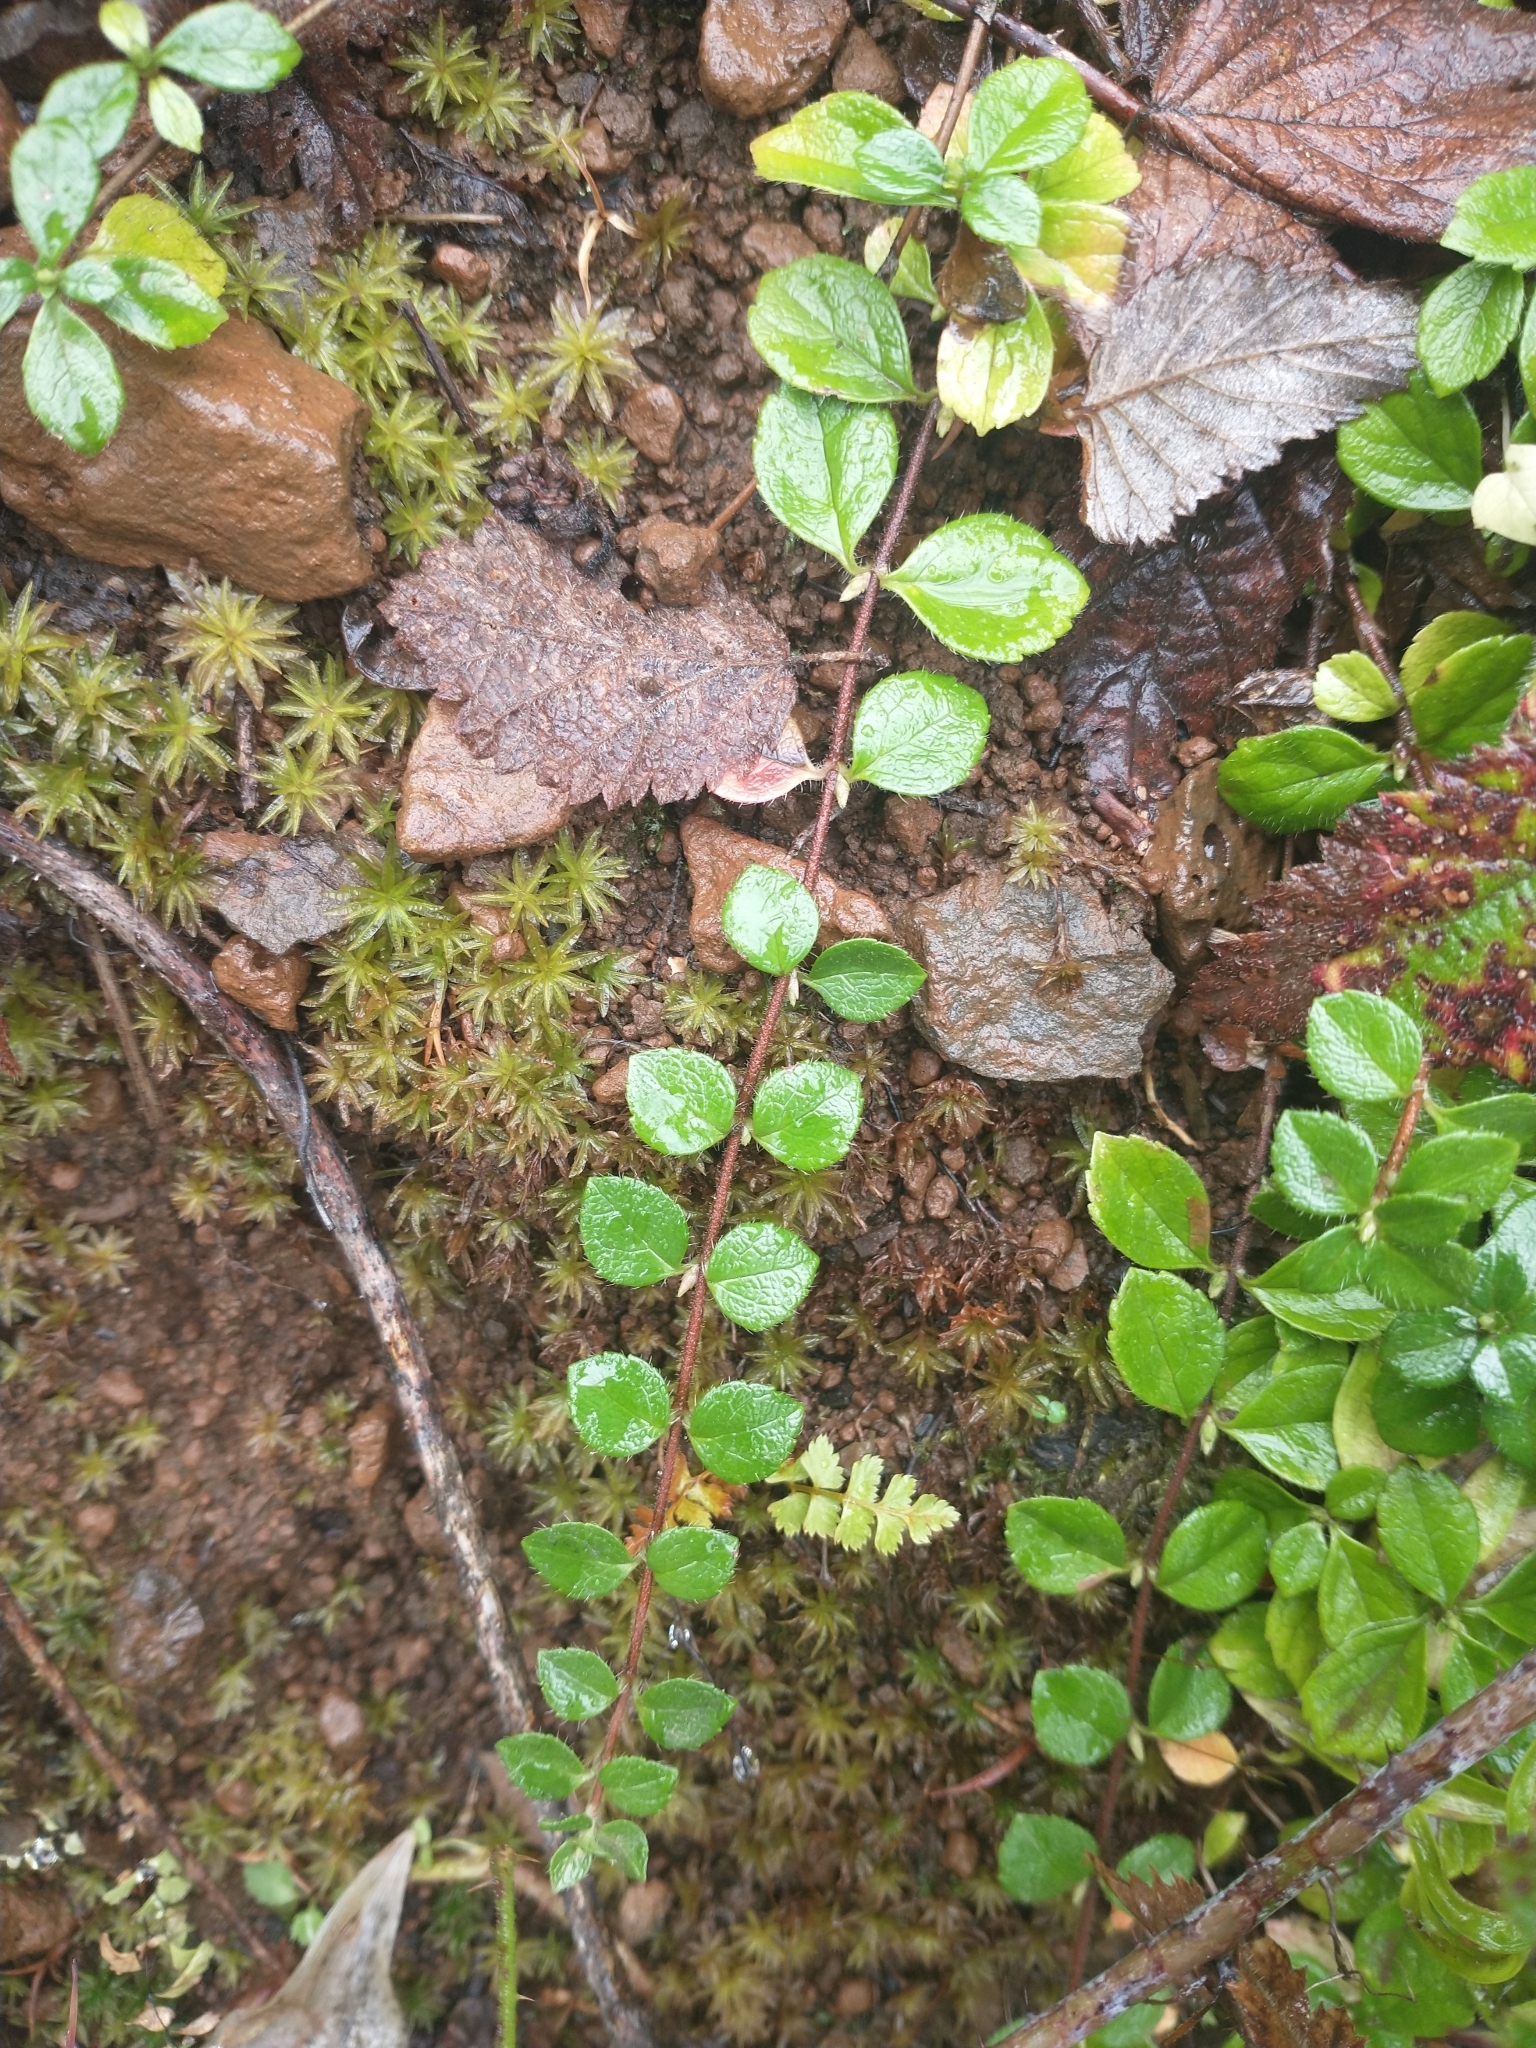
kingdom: Plantae
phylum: Tracheophyta
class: Magnoliopsida
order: Dipsacales
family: Caprifoliaceae
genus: Linnaea
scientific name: Linnaea borealis
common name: Twinflower
